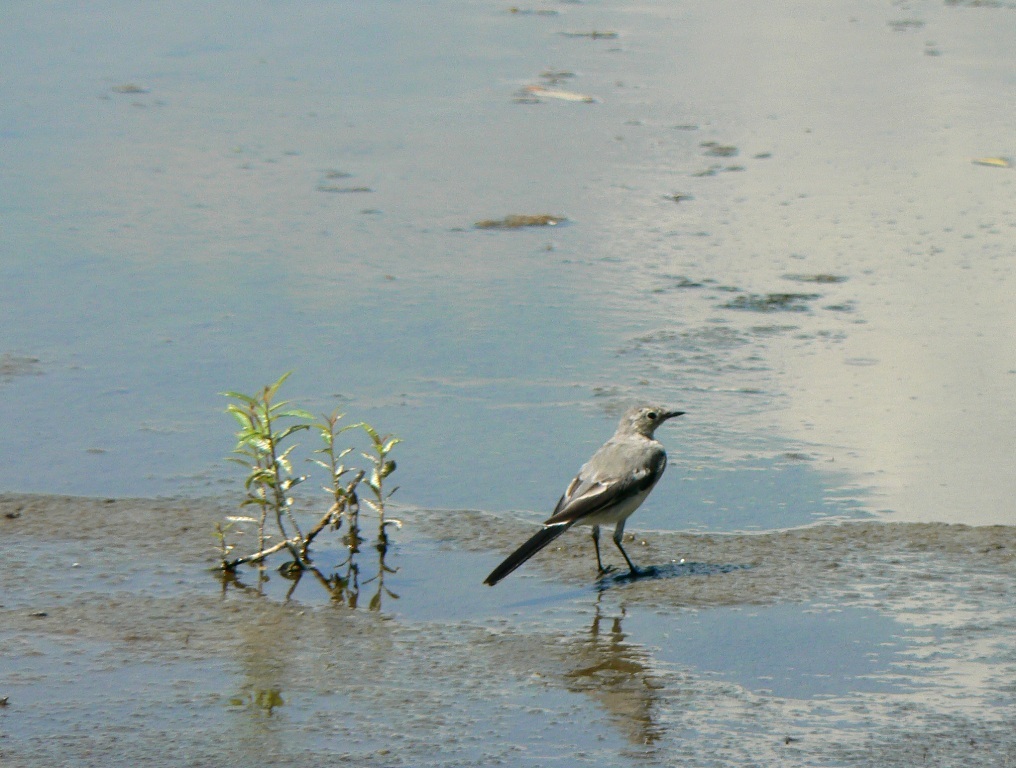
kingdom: Animalia
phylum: Chordata
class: Aves
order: Passeriformes
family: Motacillidae
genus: Motacilla
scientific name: Motacilla alba
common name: White wagtail
